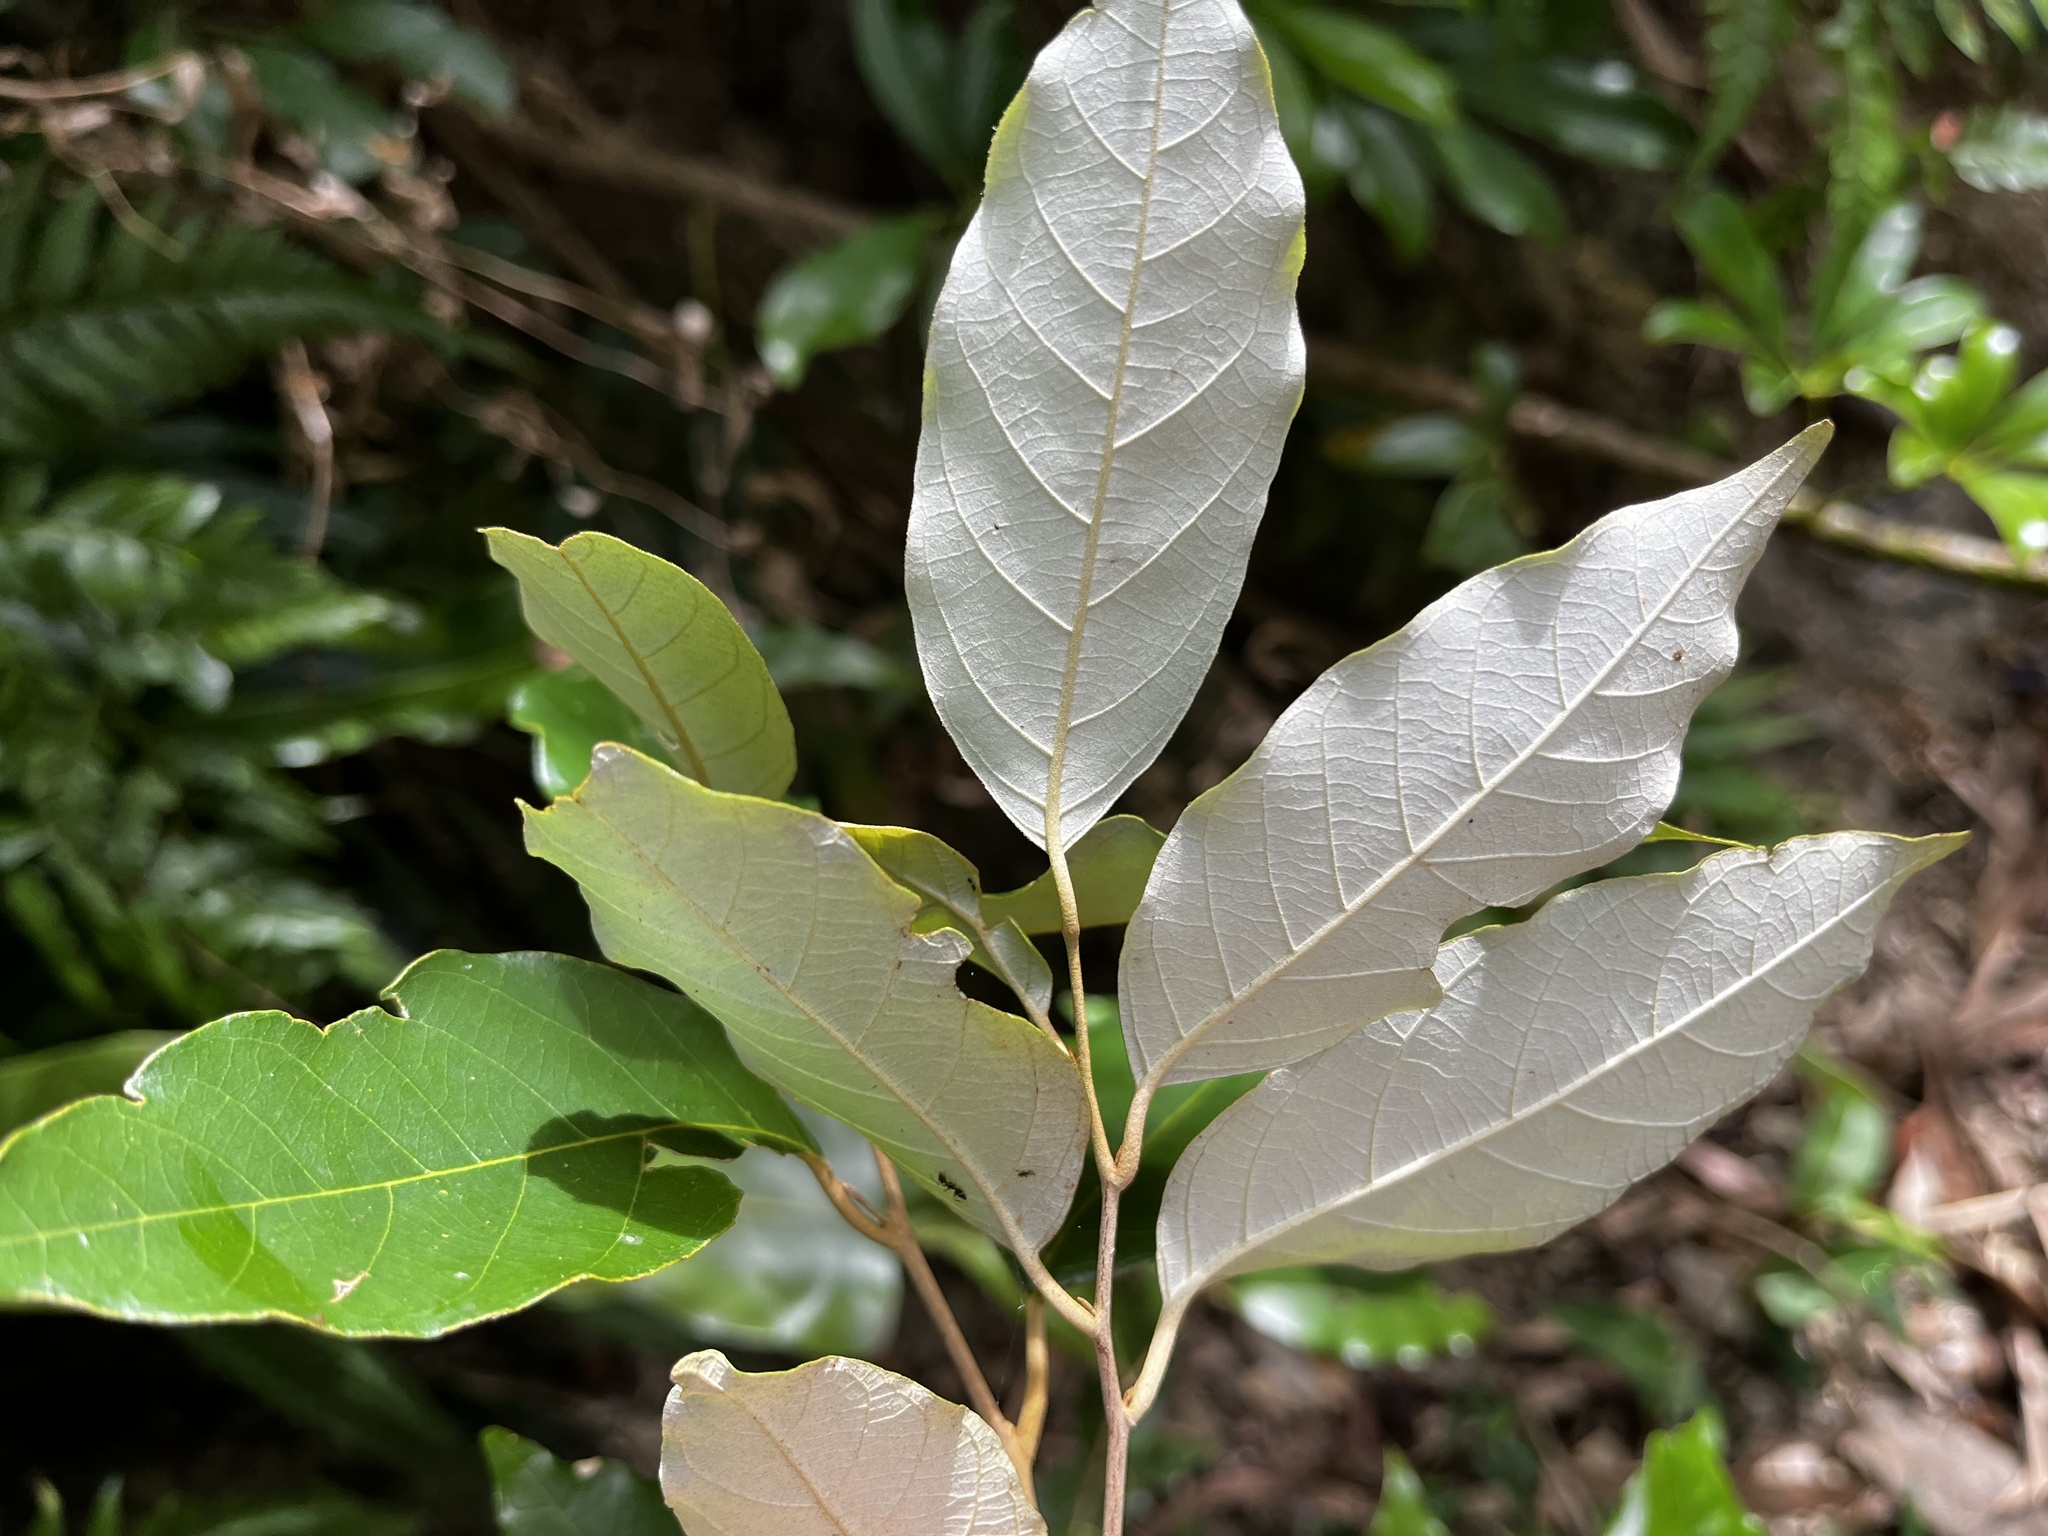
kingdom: Plantae
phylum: Tracheophyta
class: Magnoliopsida
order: Ericales
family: Styracaceae
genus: Styrax
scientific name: Styrax suberifolius
